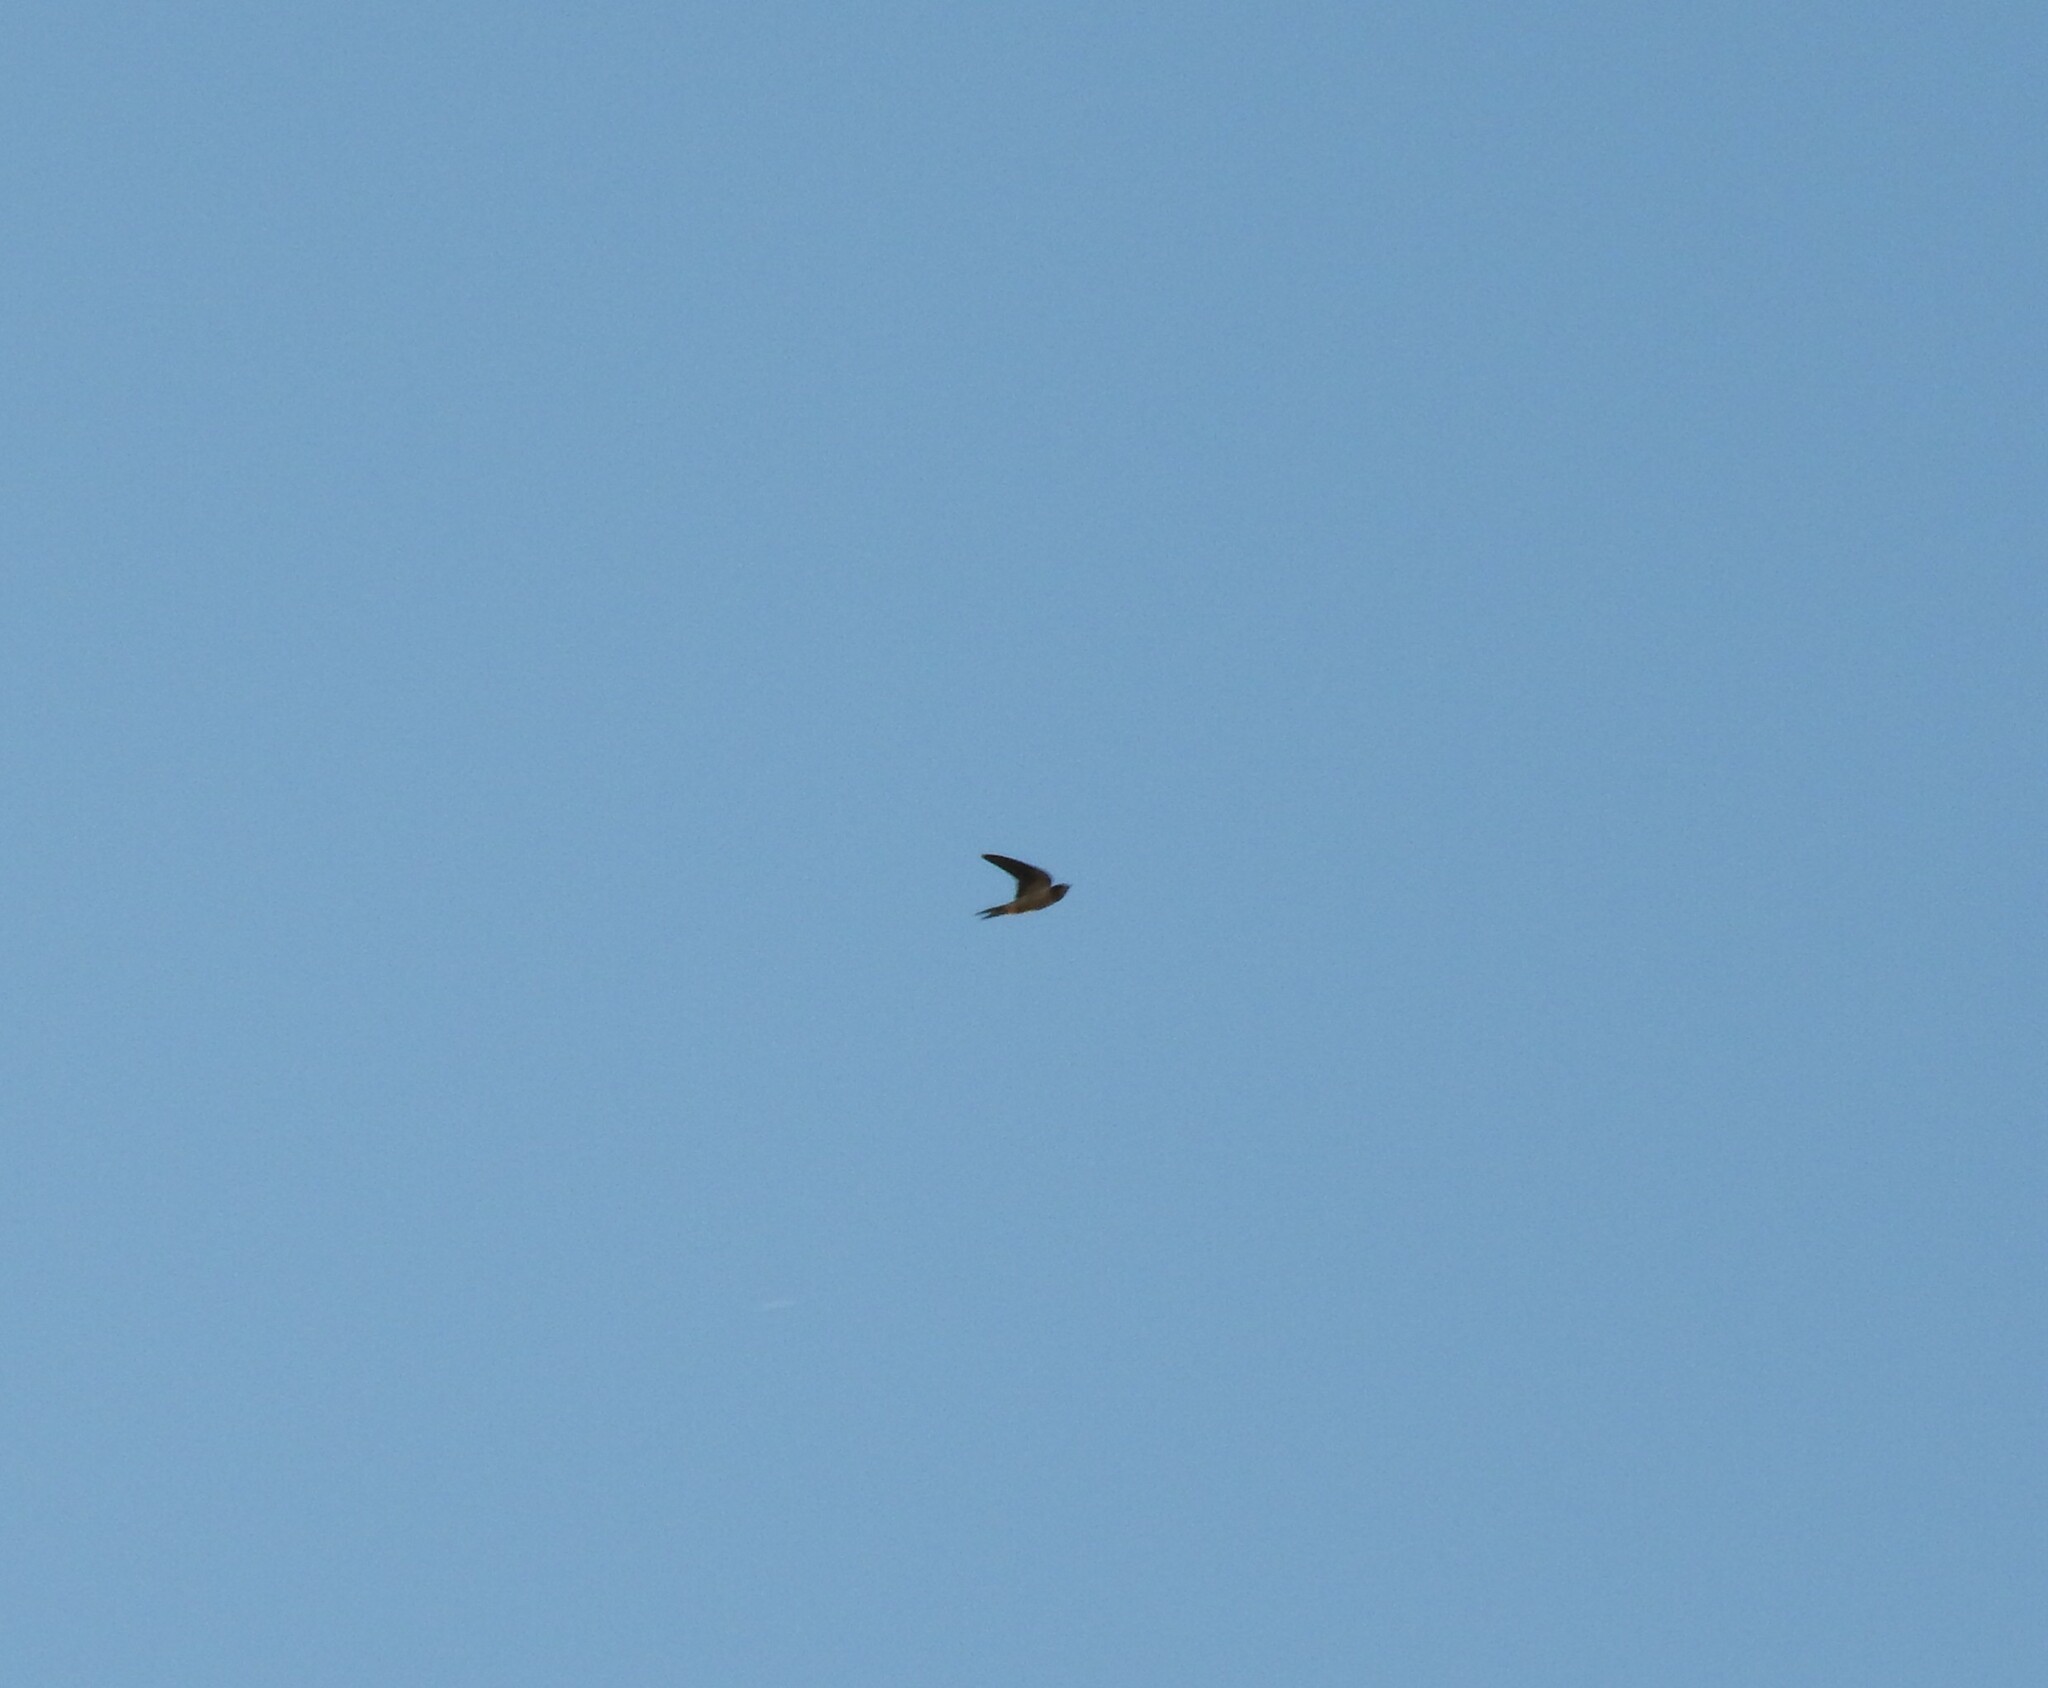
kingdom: Animalia
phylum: Chordata
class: Aves
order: Passeriformes
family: Hirundinidae
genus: Hirundo
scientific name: Hirundo rustica
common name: Barn swallow
